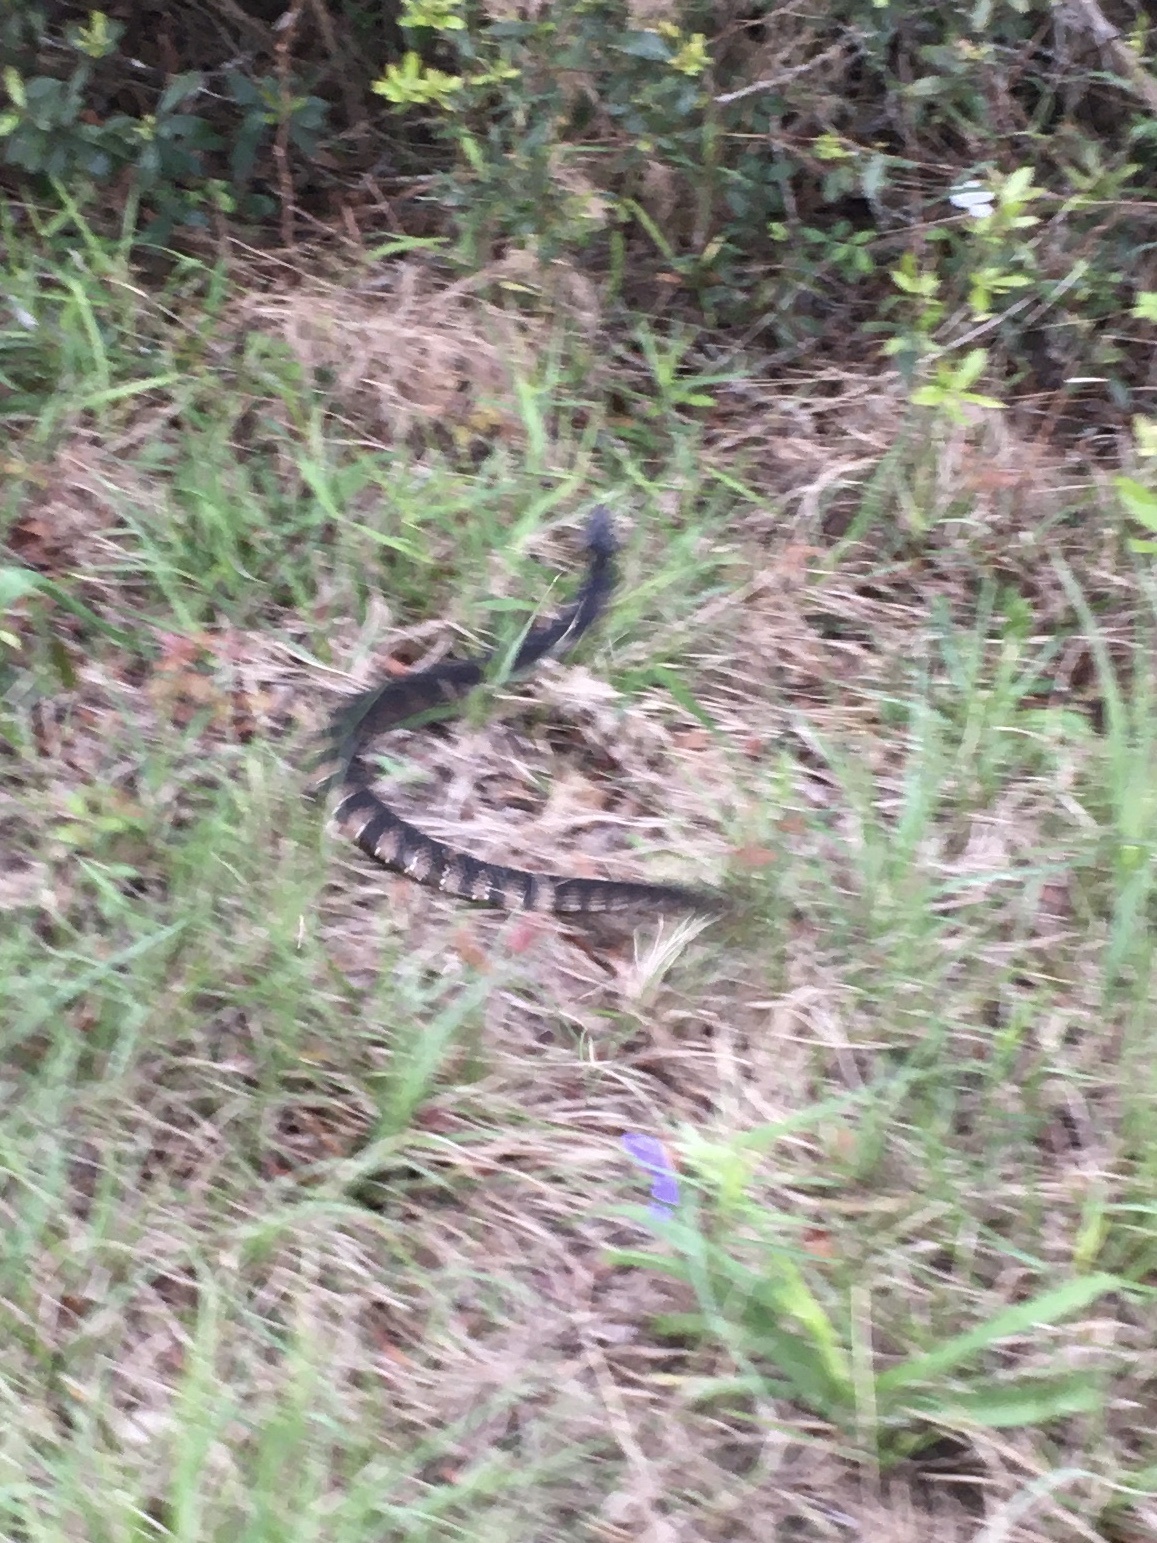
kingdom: Animalia
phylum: Chordata
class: Squamata
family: Colubridae
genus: Nerodia
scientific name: Nerodia fasciata
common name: Southern water snake
